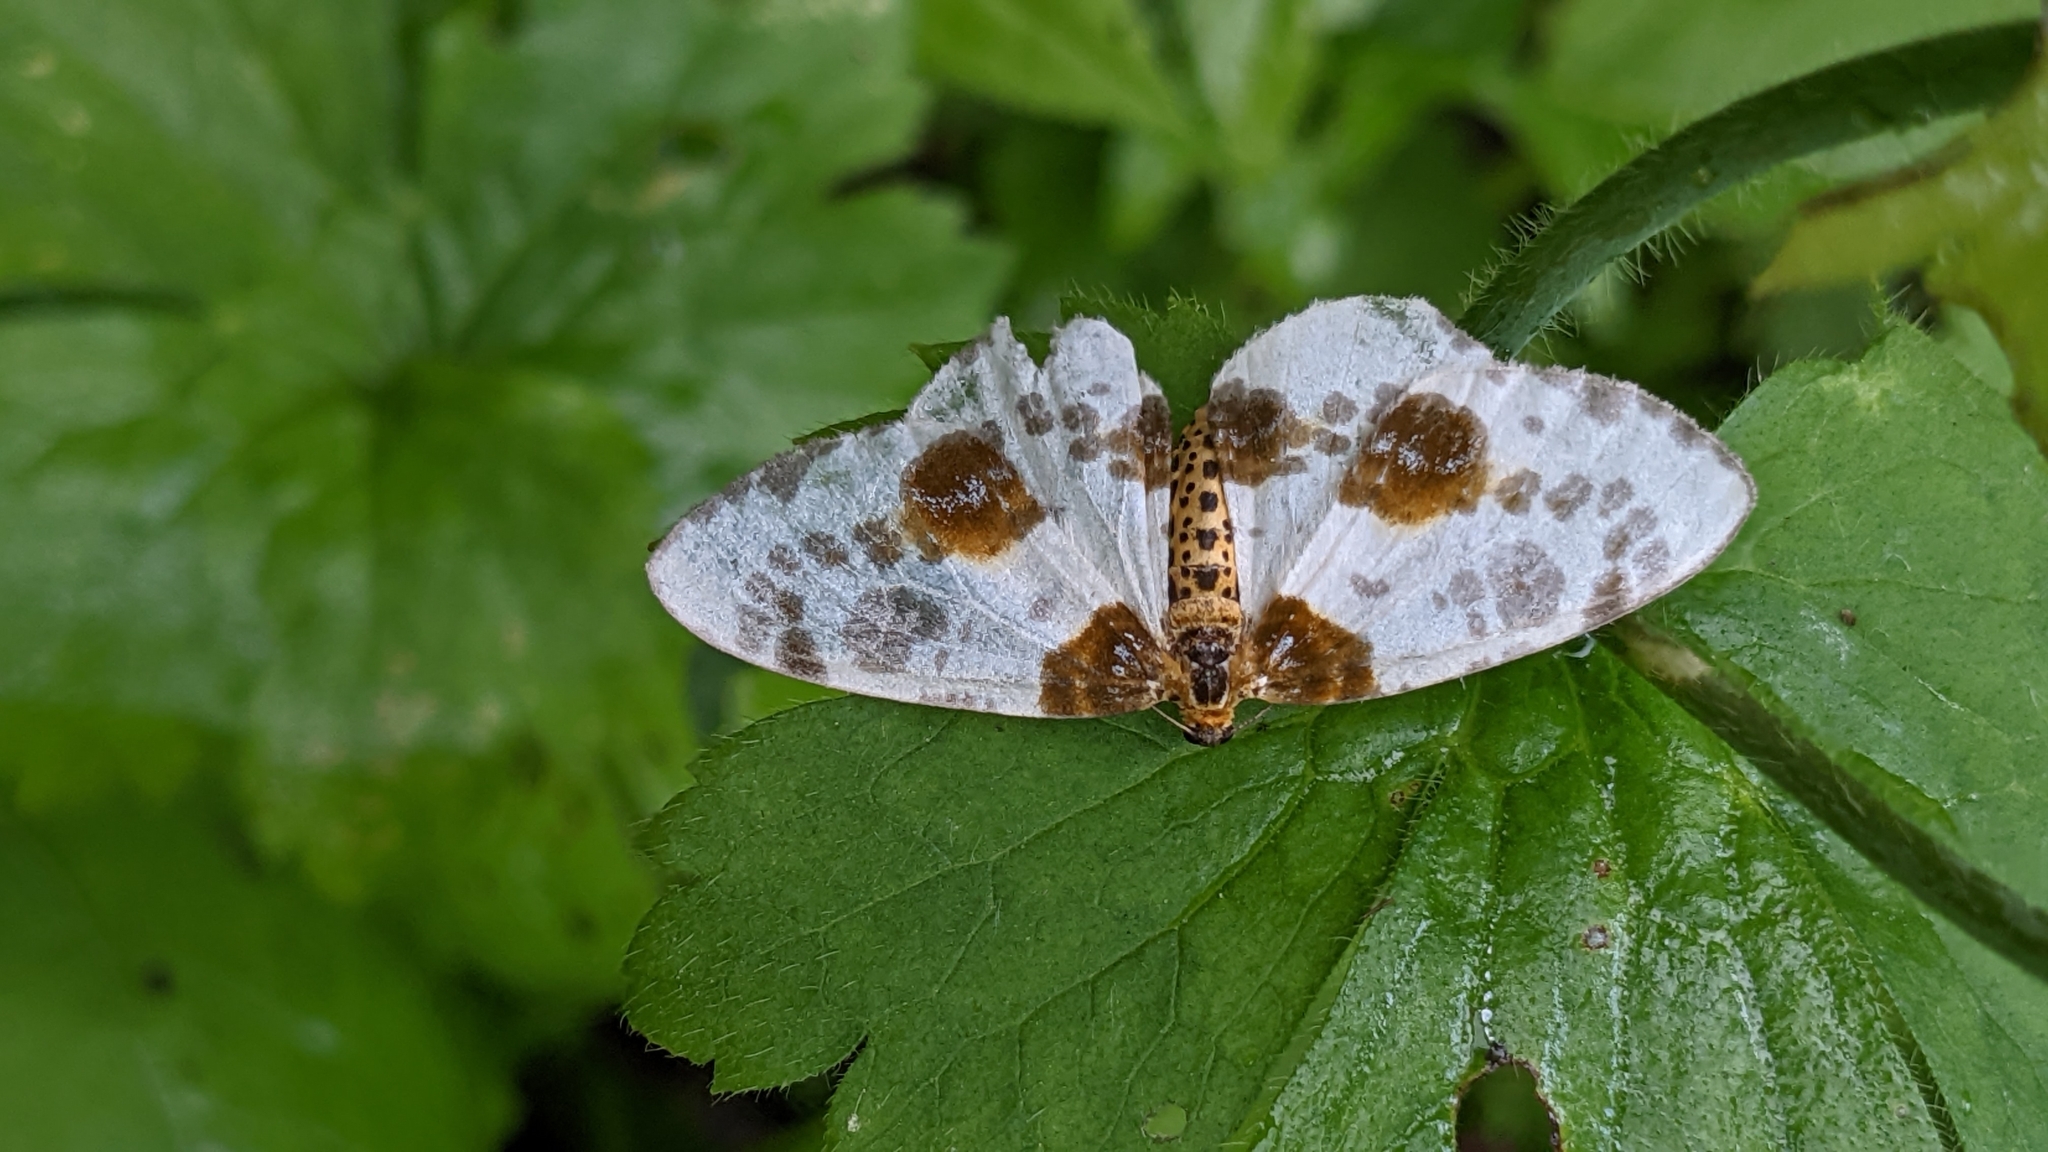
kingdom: Animalia
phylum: Arthropoda
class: Insecta
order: Lepidoptera
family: Geometridae
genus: Abraxas
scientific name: Abraxas sylvata
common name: Clouded magpie
